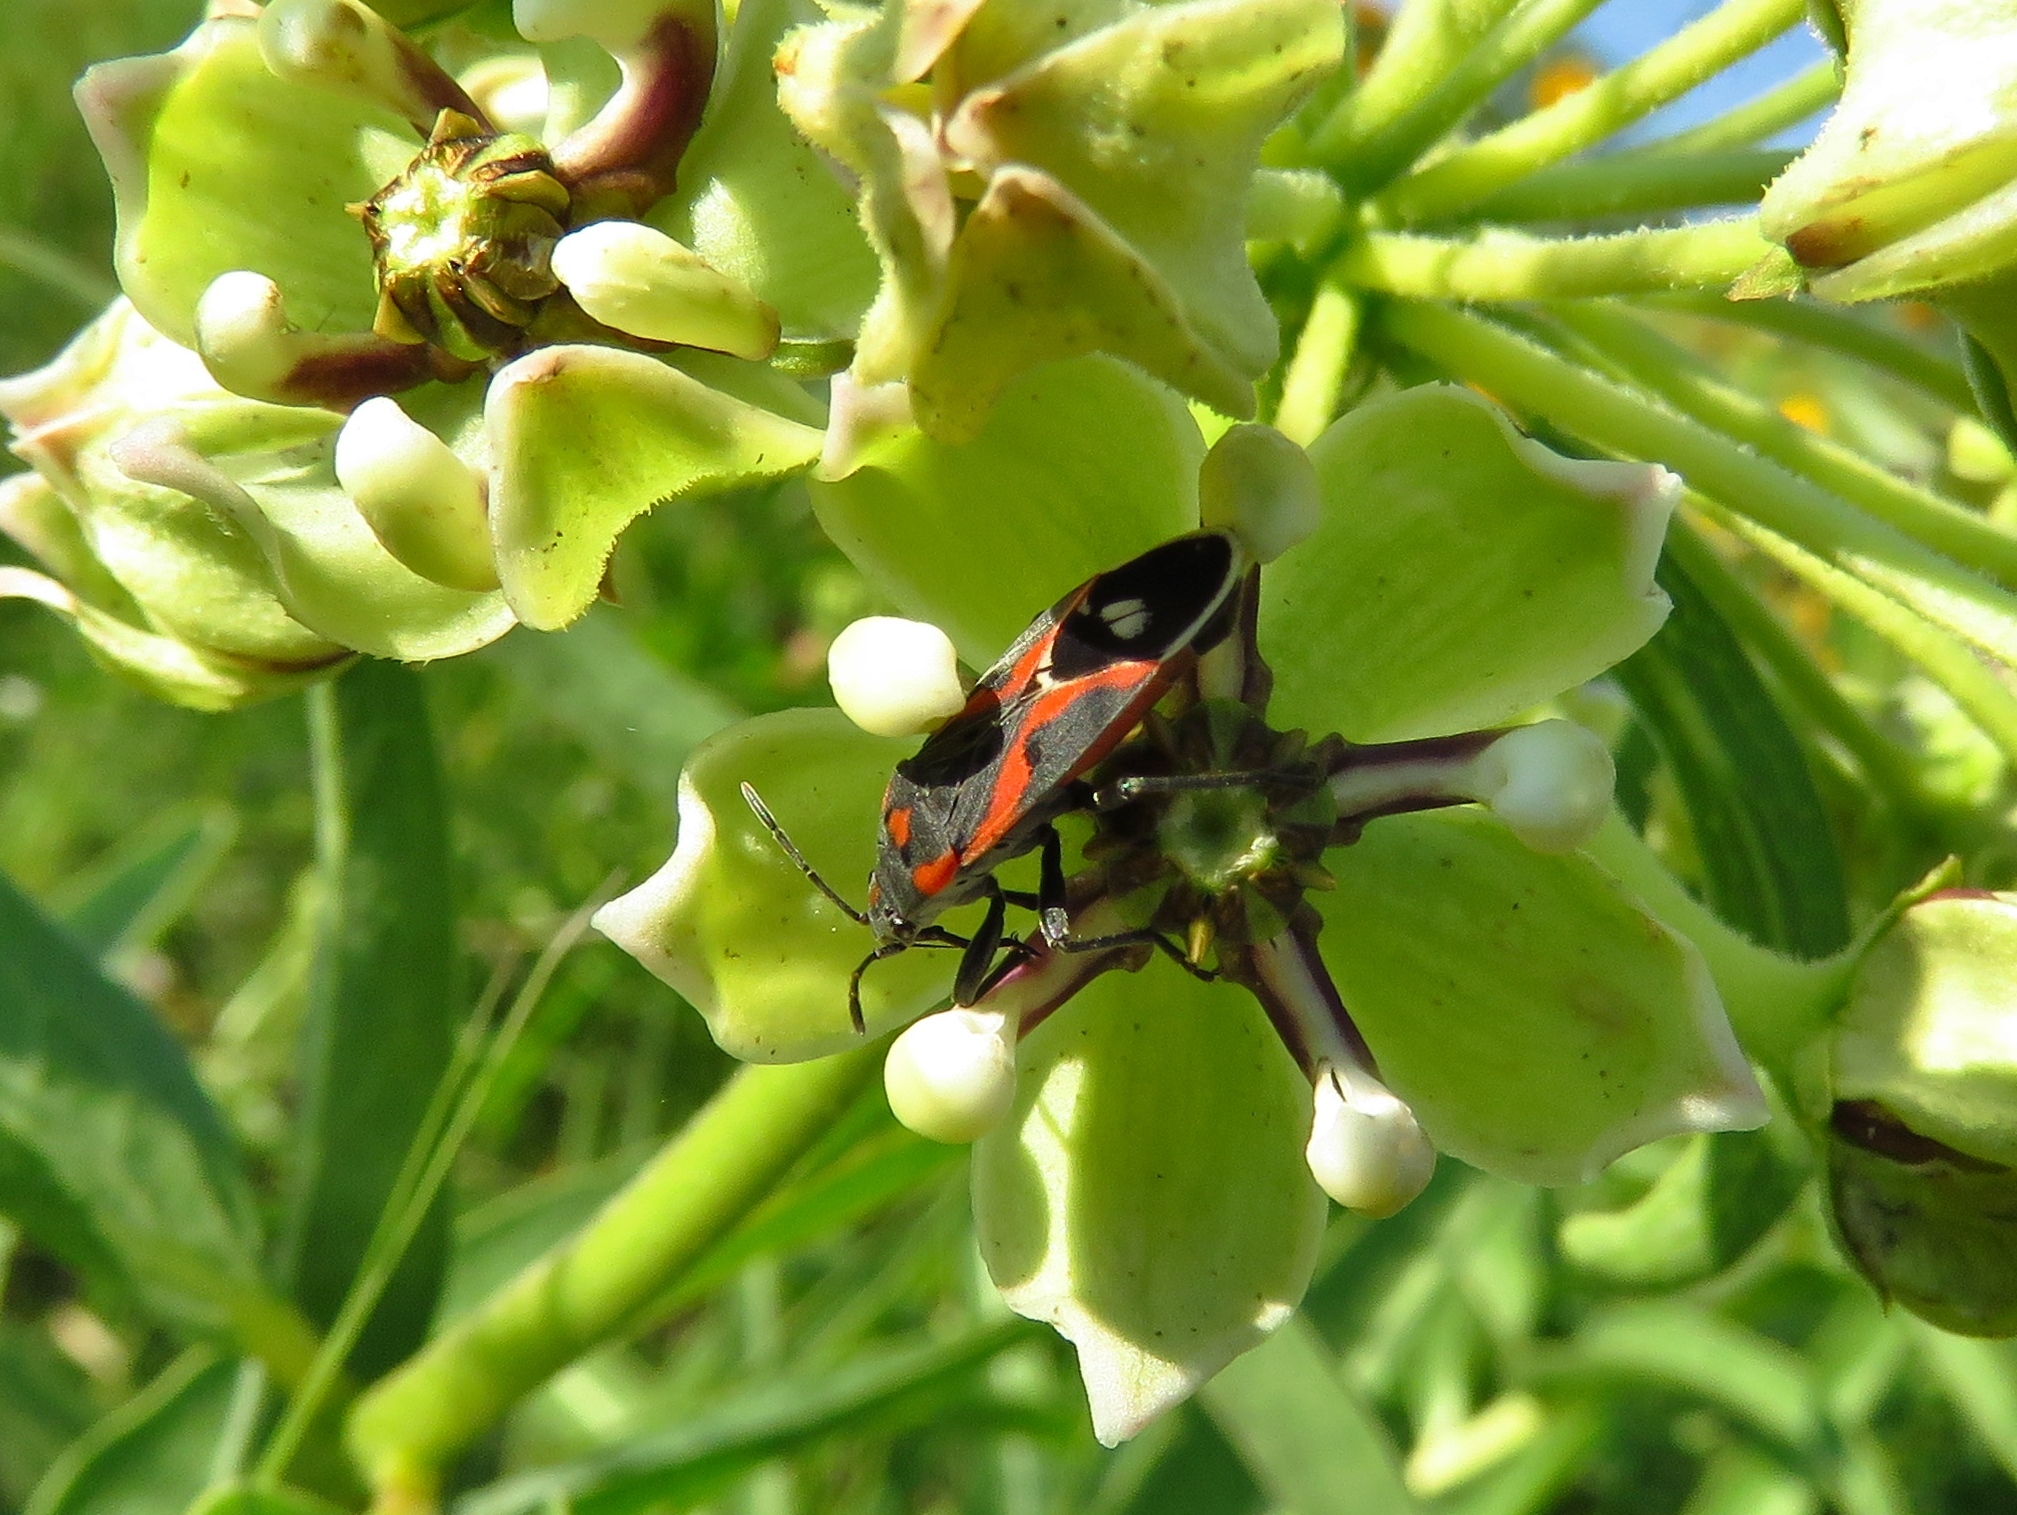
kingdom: Animalia
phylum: Arthropoda
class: Insecta
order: Hemiptera
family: Lygaeidae
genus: Lygaeus
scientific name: Lygaeus kalmii
